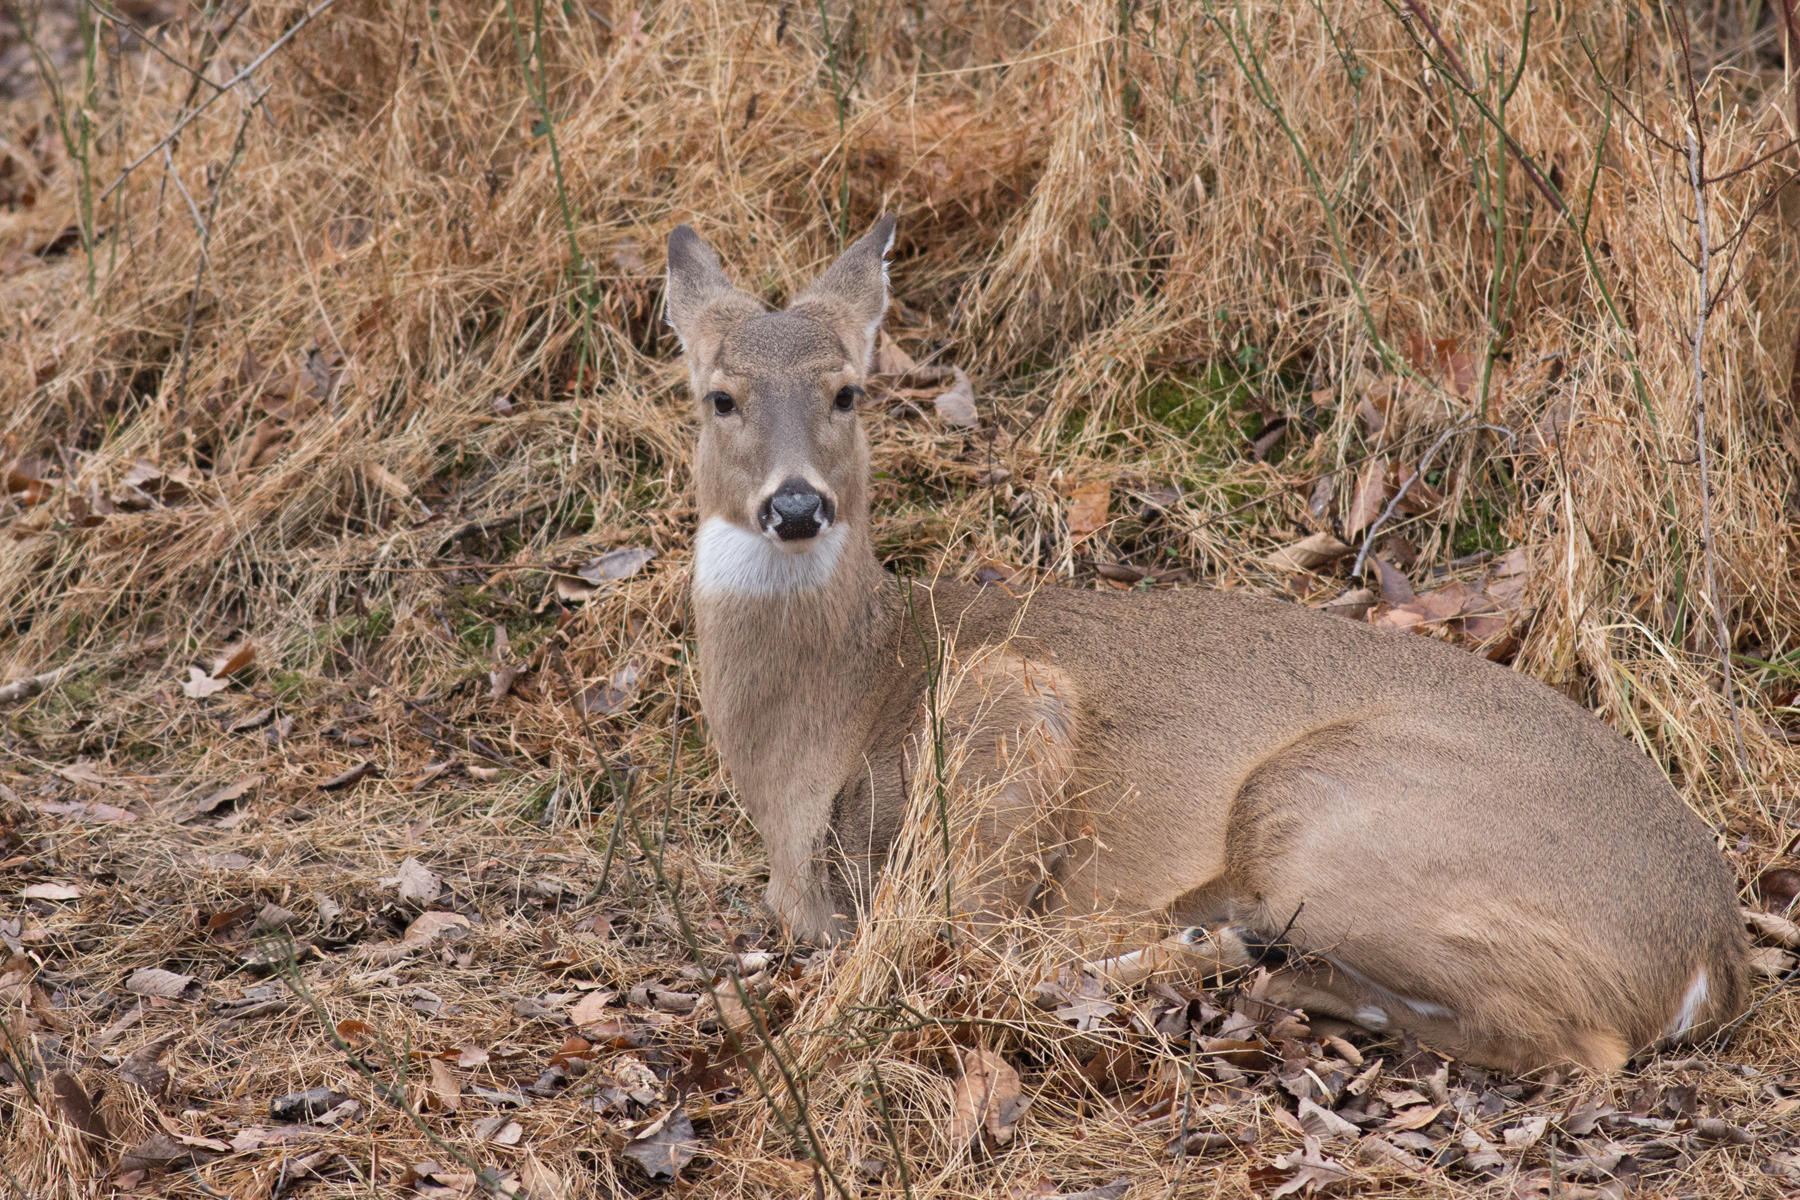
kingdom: Animalia
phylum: Chordata
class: Mammalia
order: Artiodactyla
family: Cervidae
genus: Odocoileus
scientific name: Odocoileus virginianus
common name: White-tailed deer
